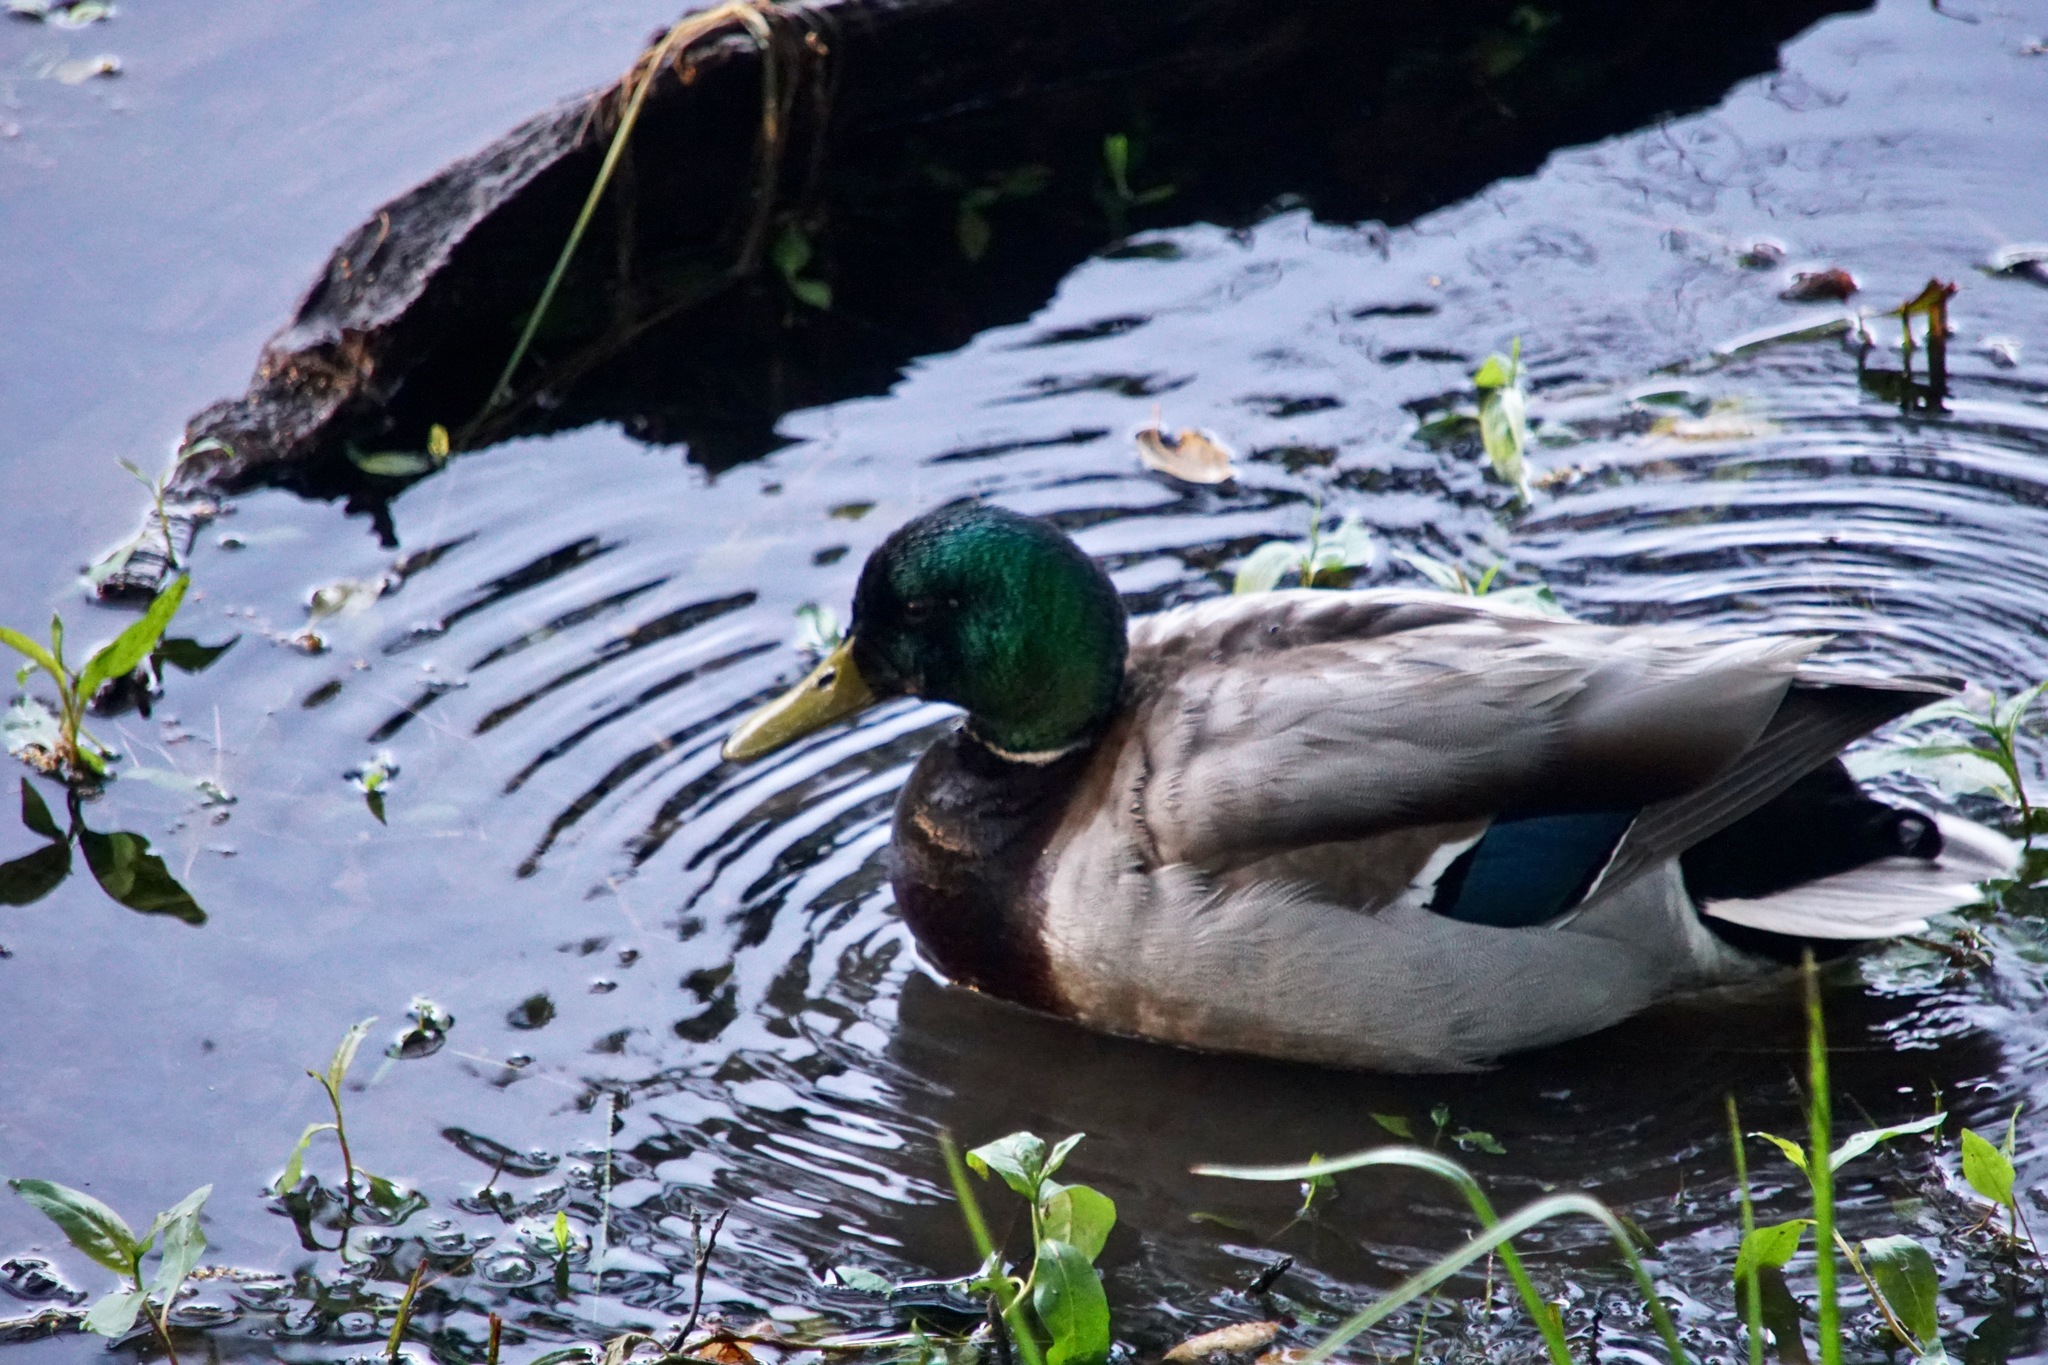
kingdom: Animalia
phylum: Chordata
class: Aves
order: Anseriformes
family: Anatidae
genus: Anas
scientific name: Anas platyrhynchos
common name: Mallard
